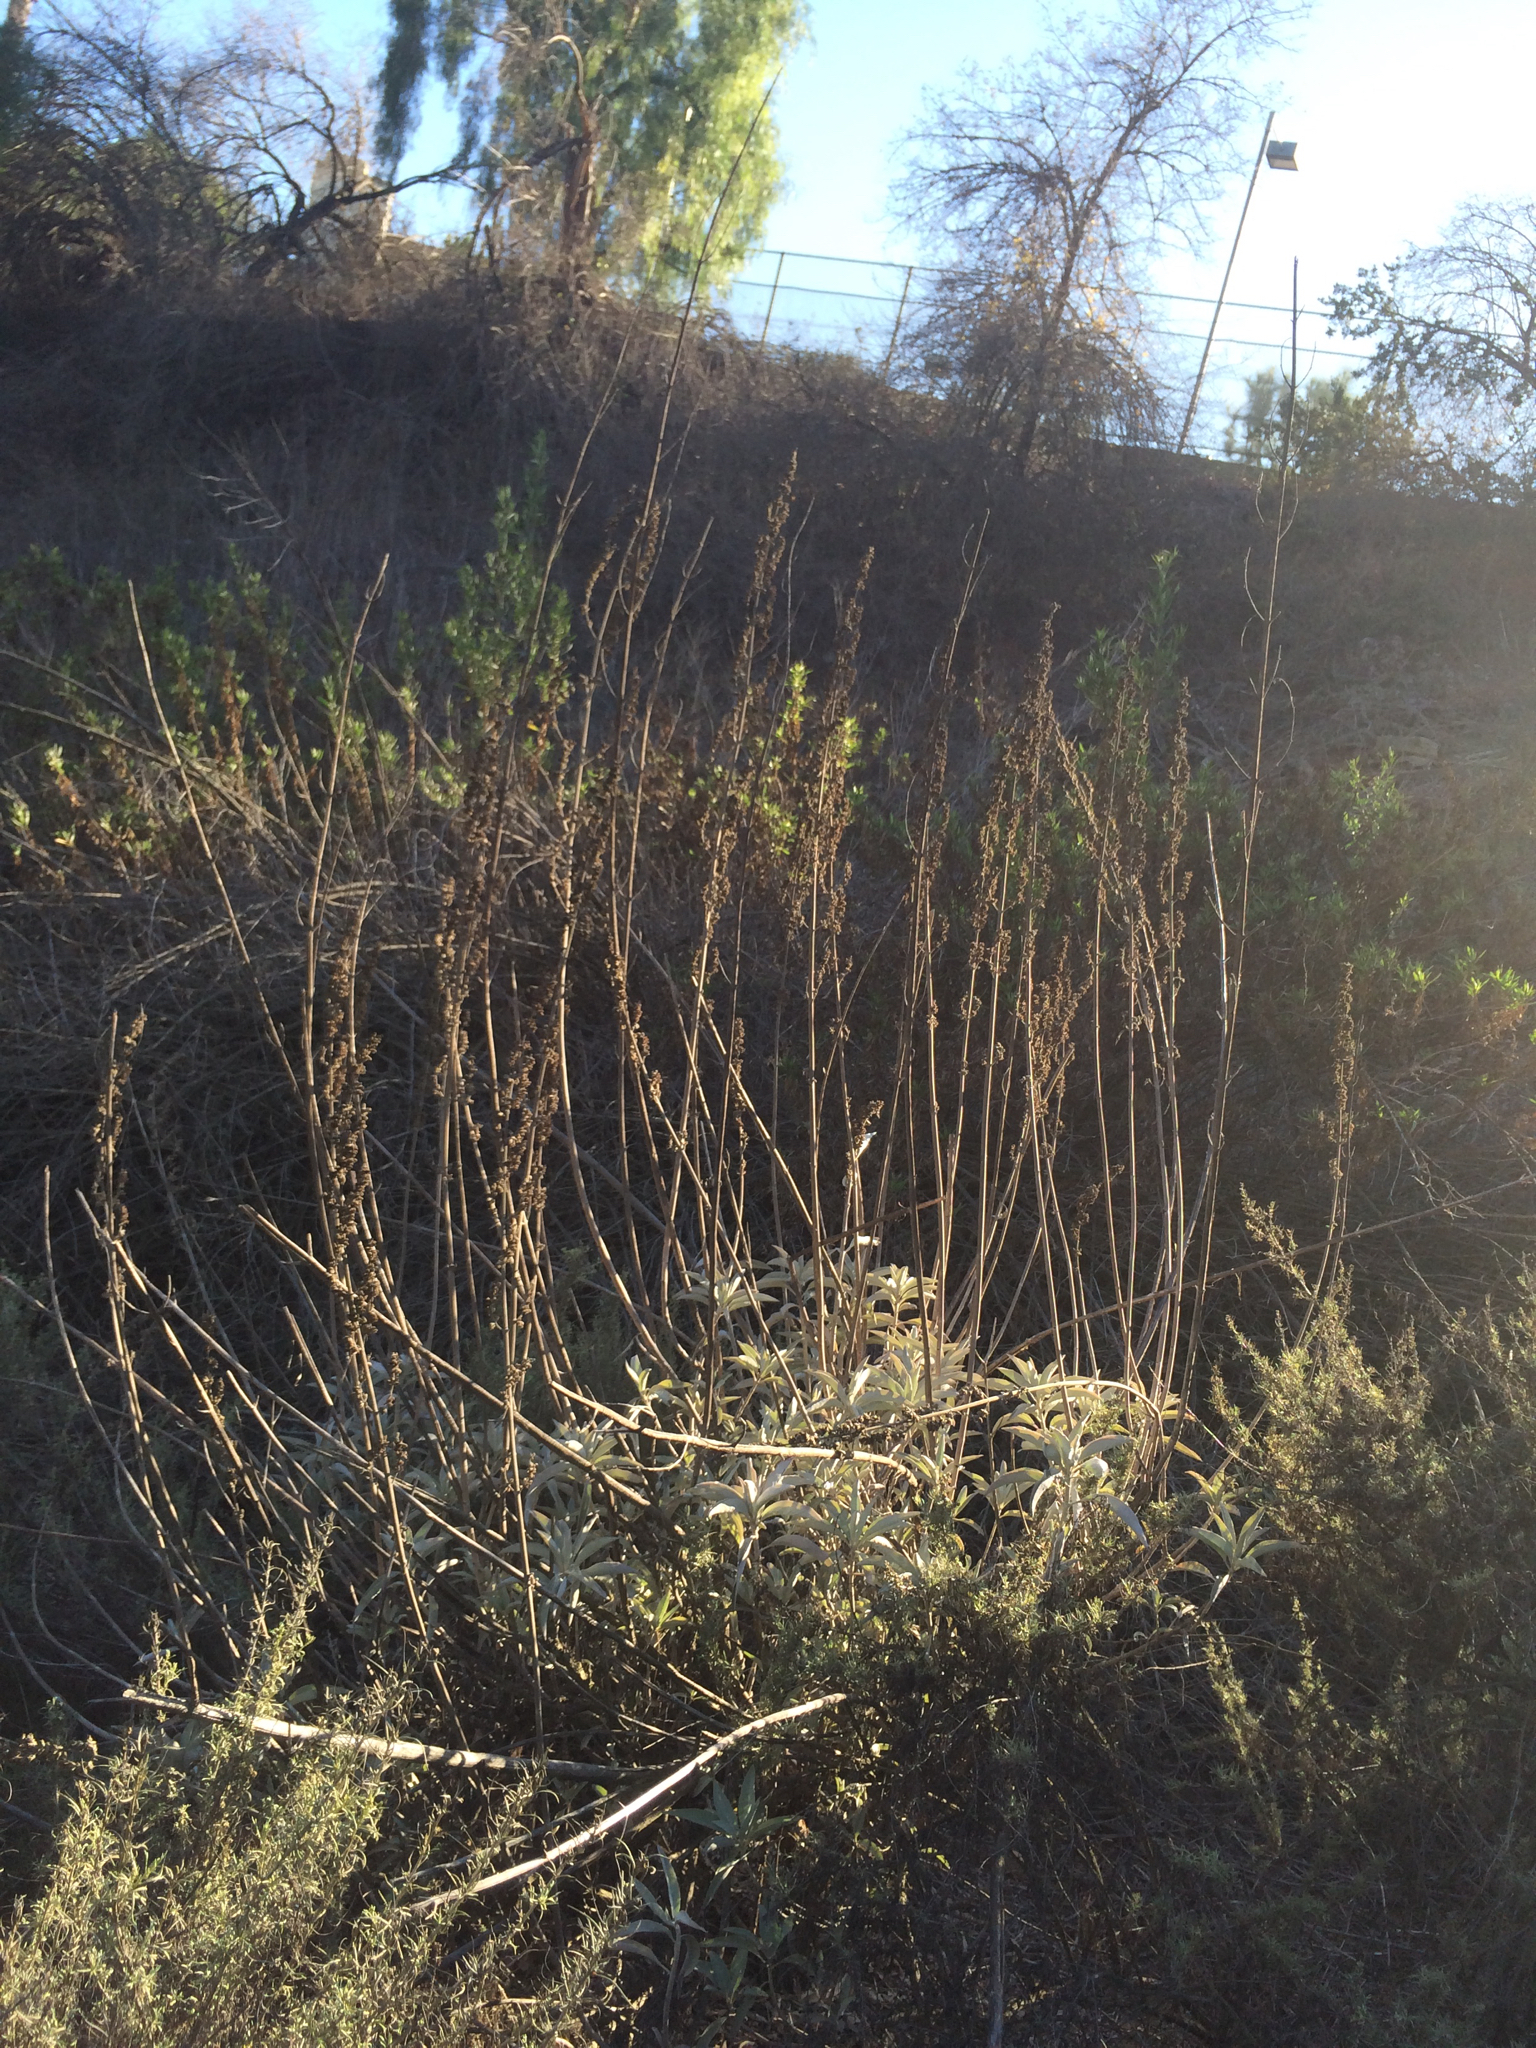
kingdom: Plantae
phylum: Tracheophyta
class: Magnoliopsida
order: Lamiales
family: Lamiaceae
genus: Salvia
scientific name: Salvia apiana
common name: White sage
